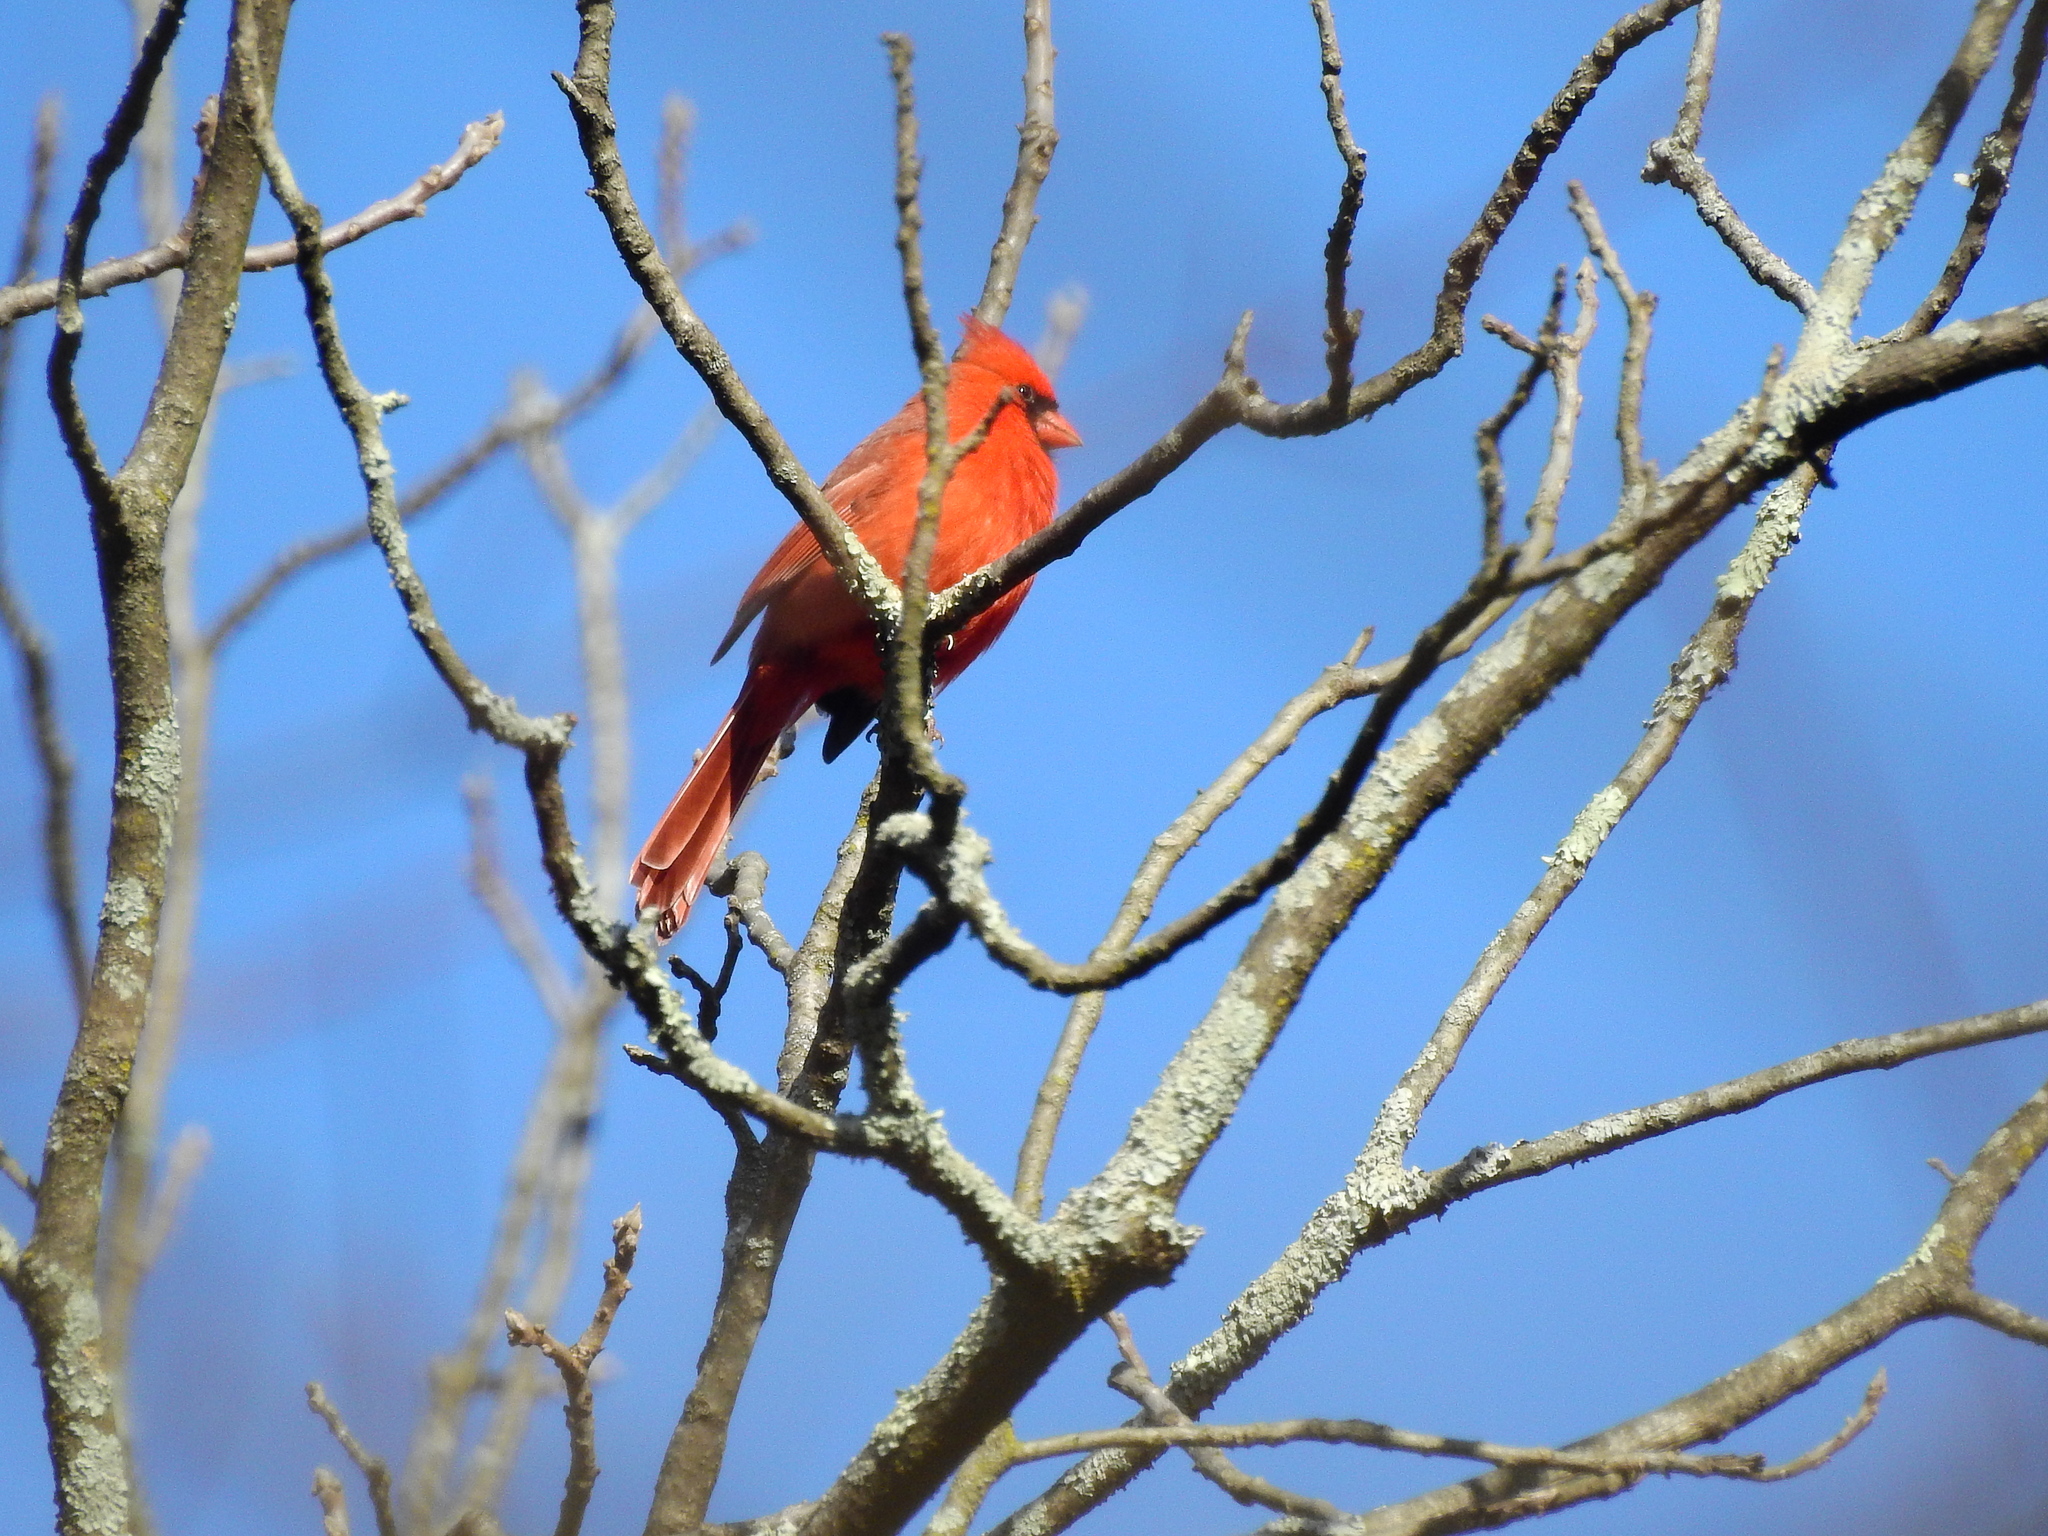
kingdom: Animalia
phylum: Chordata
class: Aves
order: Passeriformes
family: Cardinalidae
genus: Cardinalis
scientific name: Cardinalis cardinalis
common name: Northern cardinal
